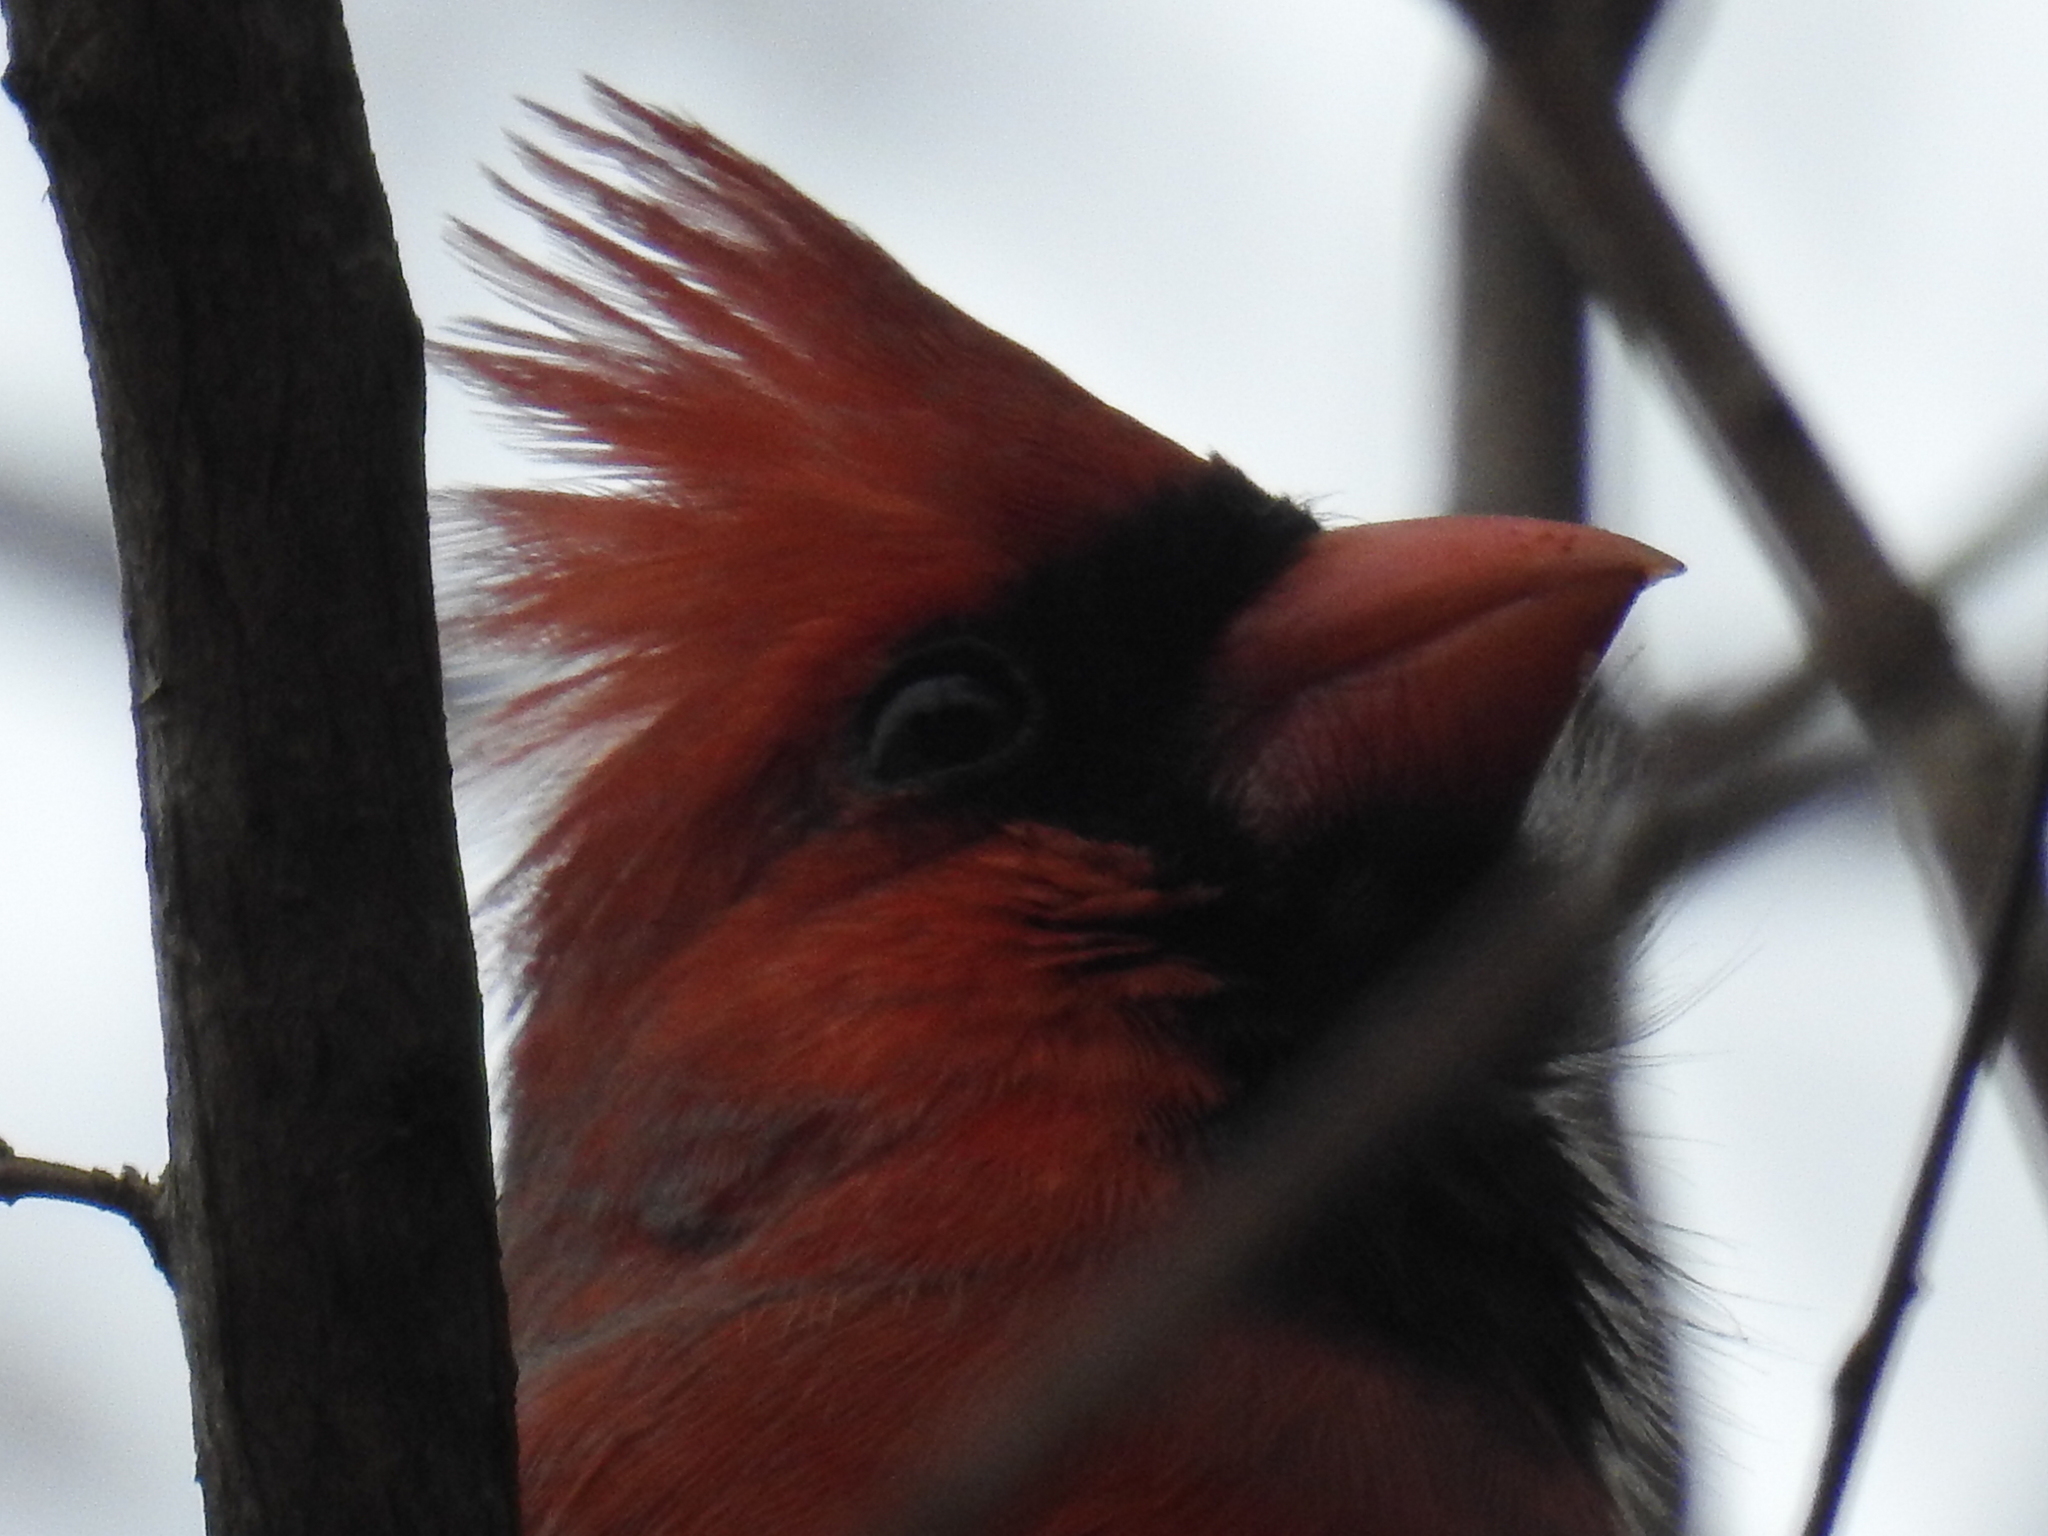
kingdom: Animalia
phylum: Chordata
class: Aves
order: Passeriformes
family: Cardinalidae
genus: Cardinalis
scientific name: Cardinalis cardinalis
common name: Northern cardinal
